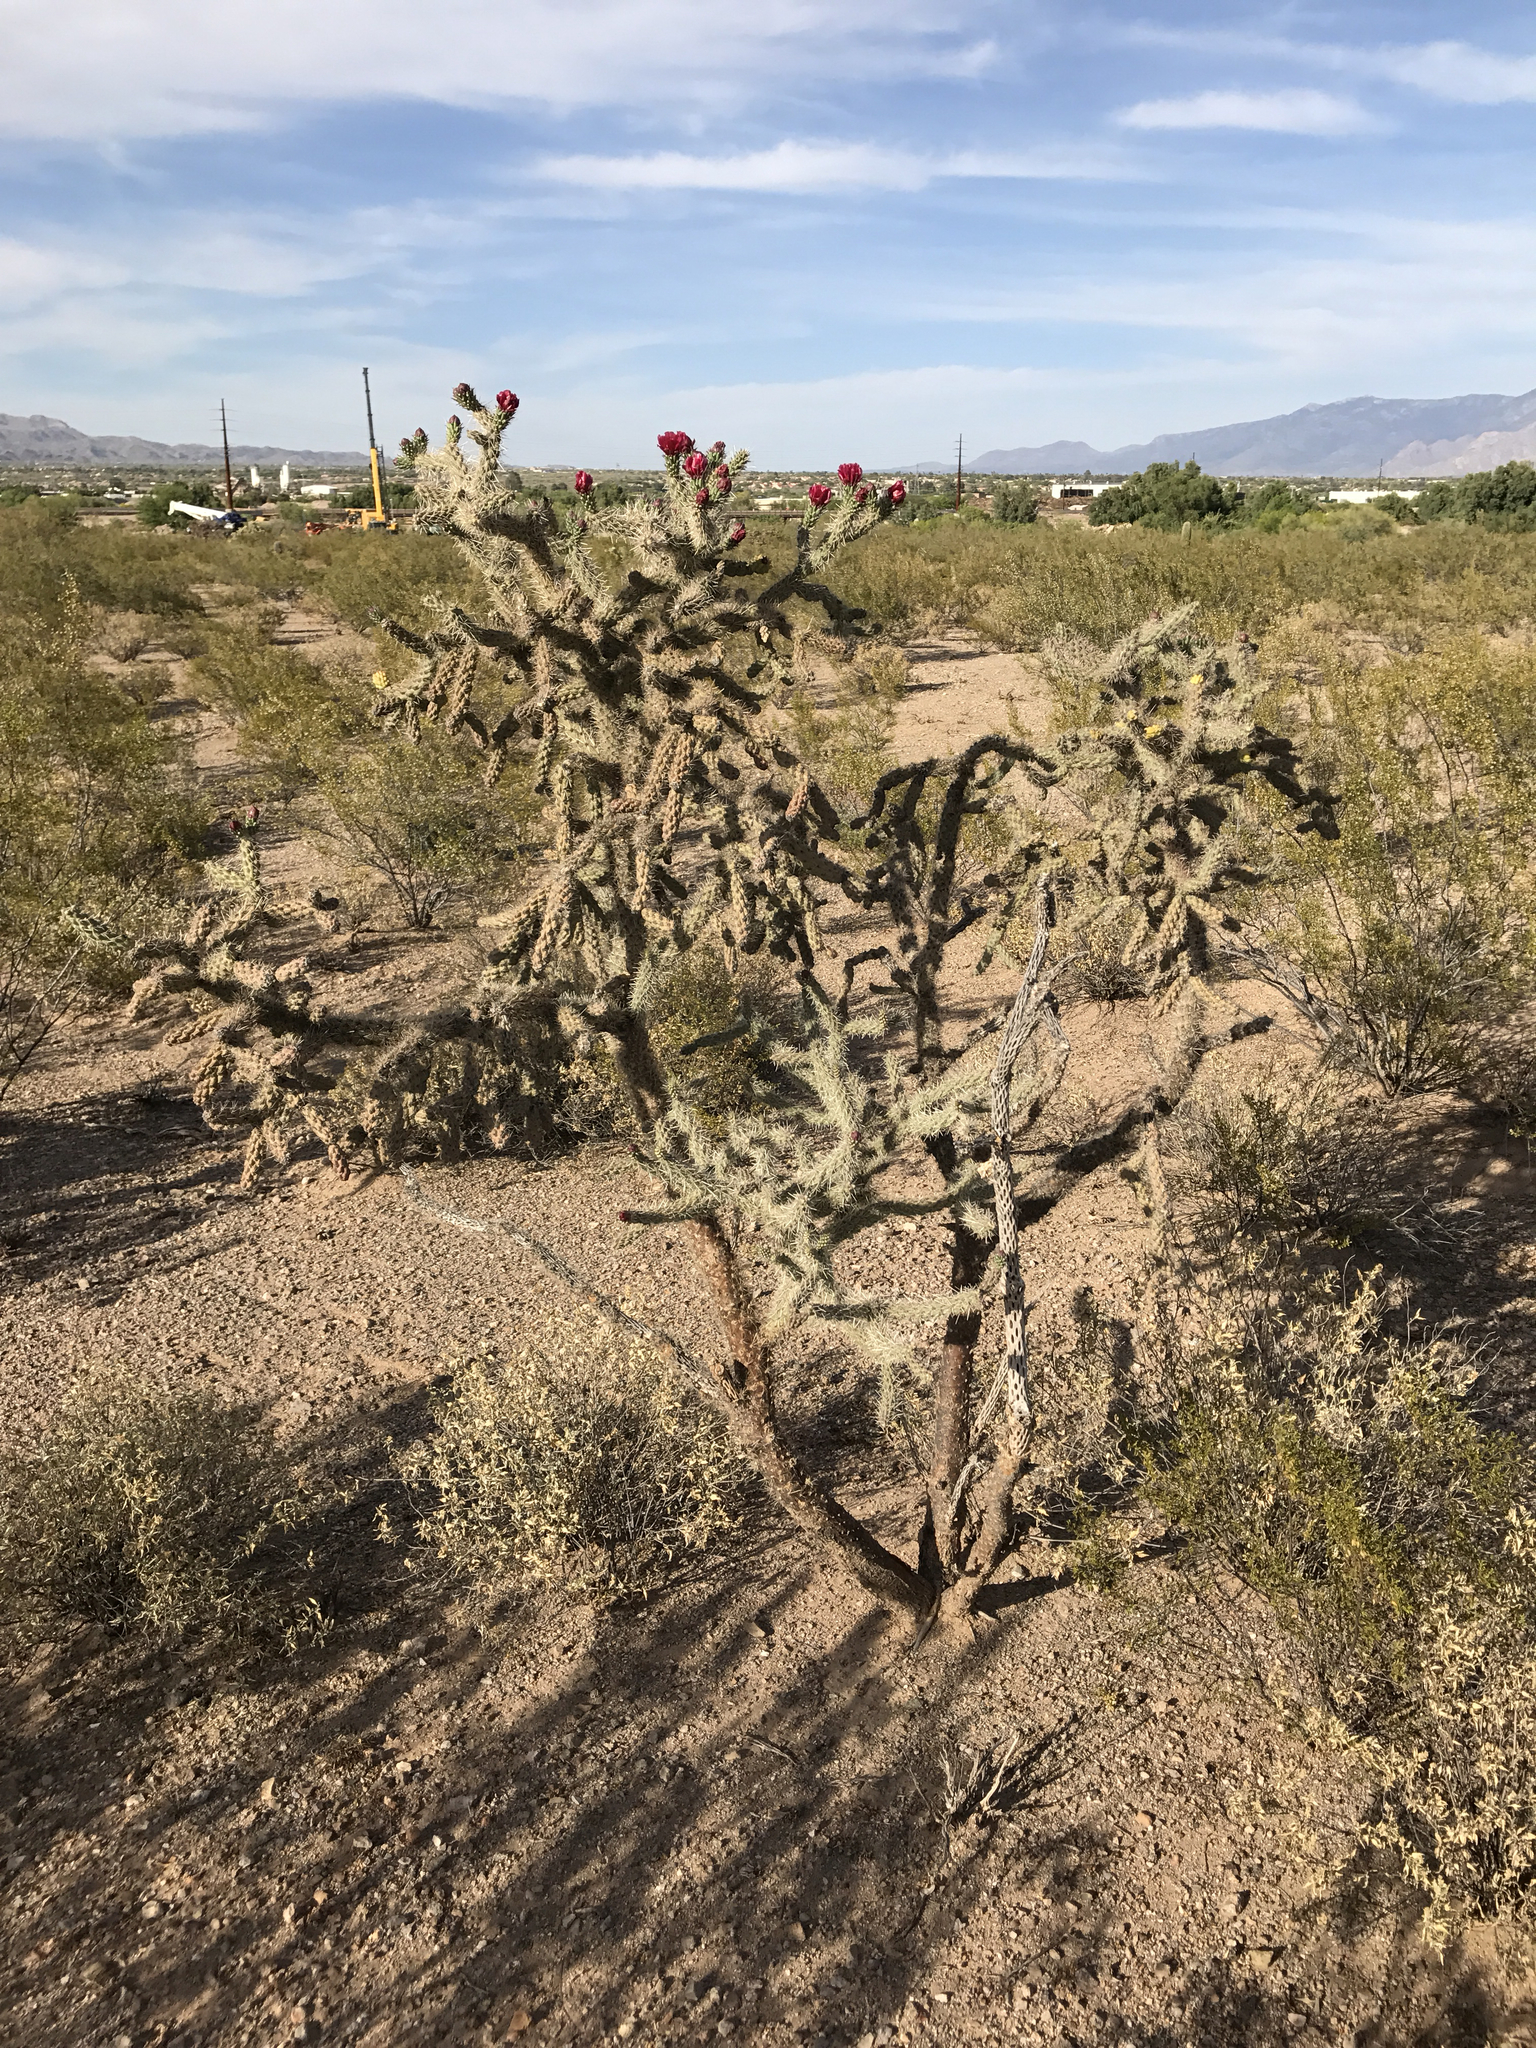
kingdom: Plantae
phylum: Tracheophyta
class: Magnoliopsida
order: Caryophyllales
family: Cactaceae
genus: Cylindropuntia
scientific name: Cylindropuntia imbricata
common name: Candelabrum cactus
